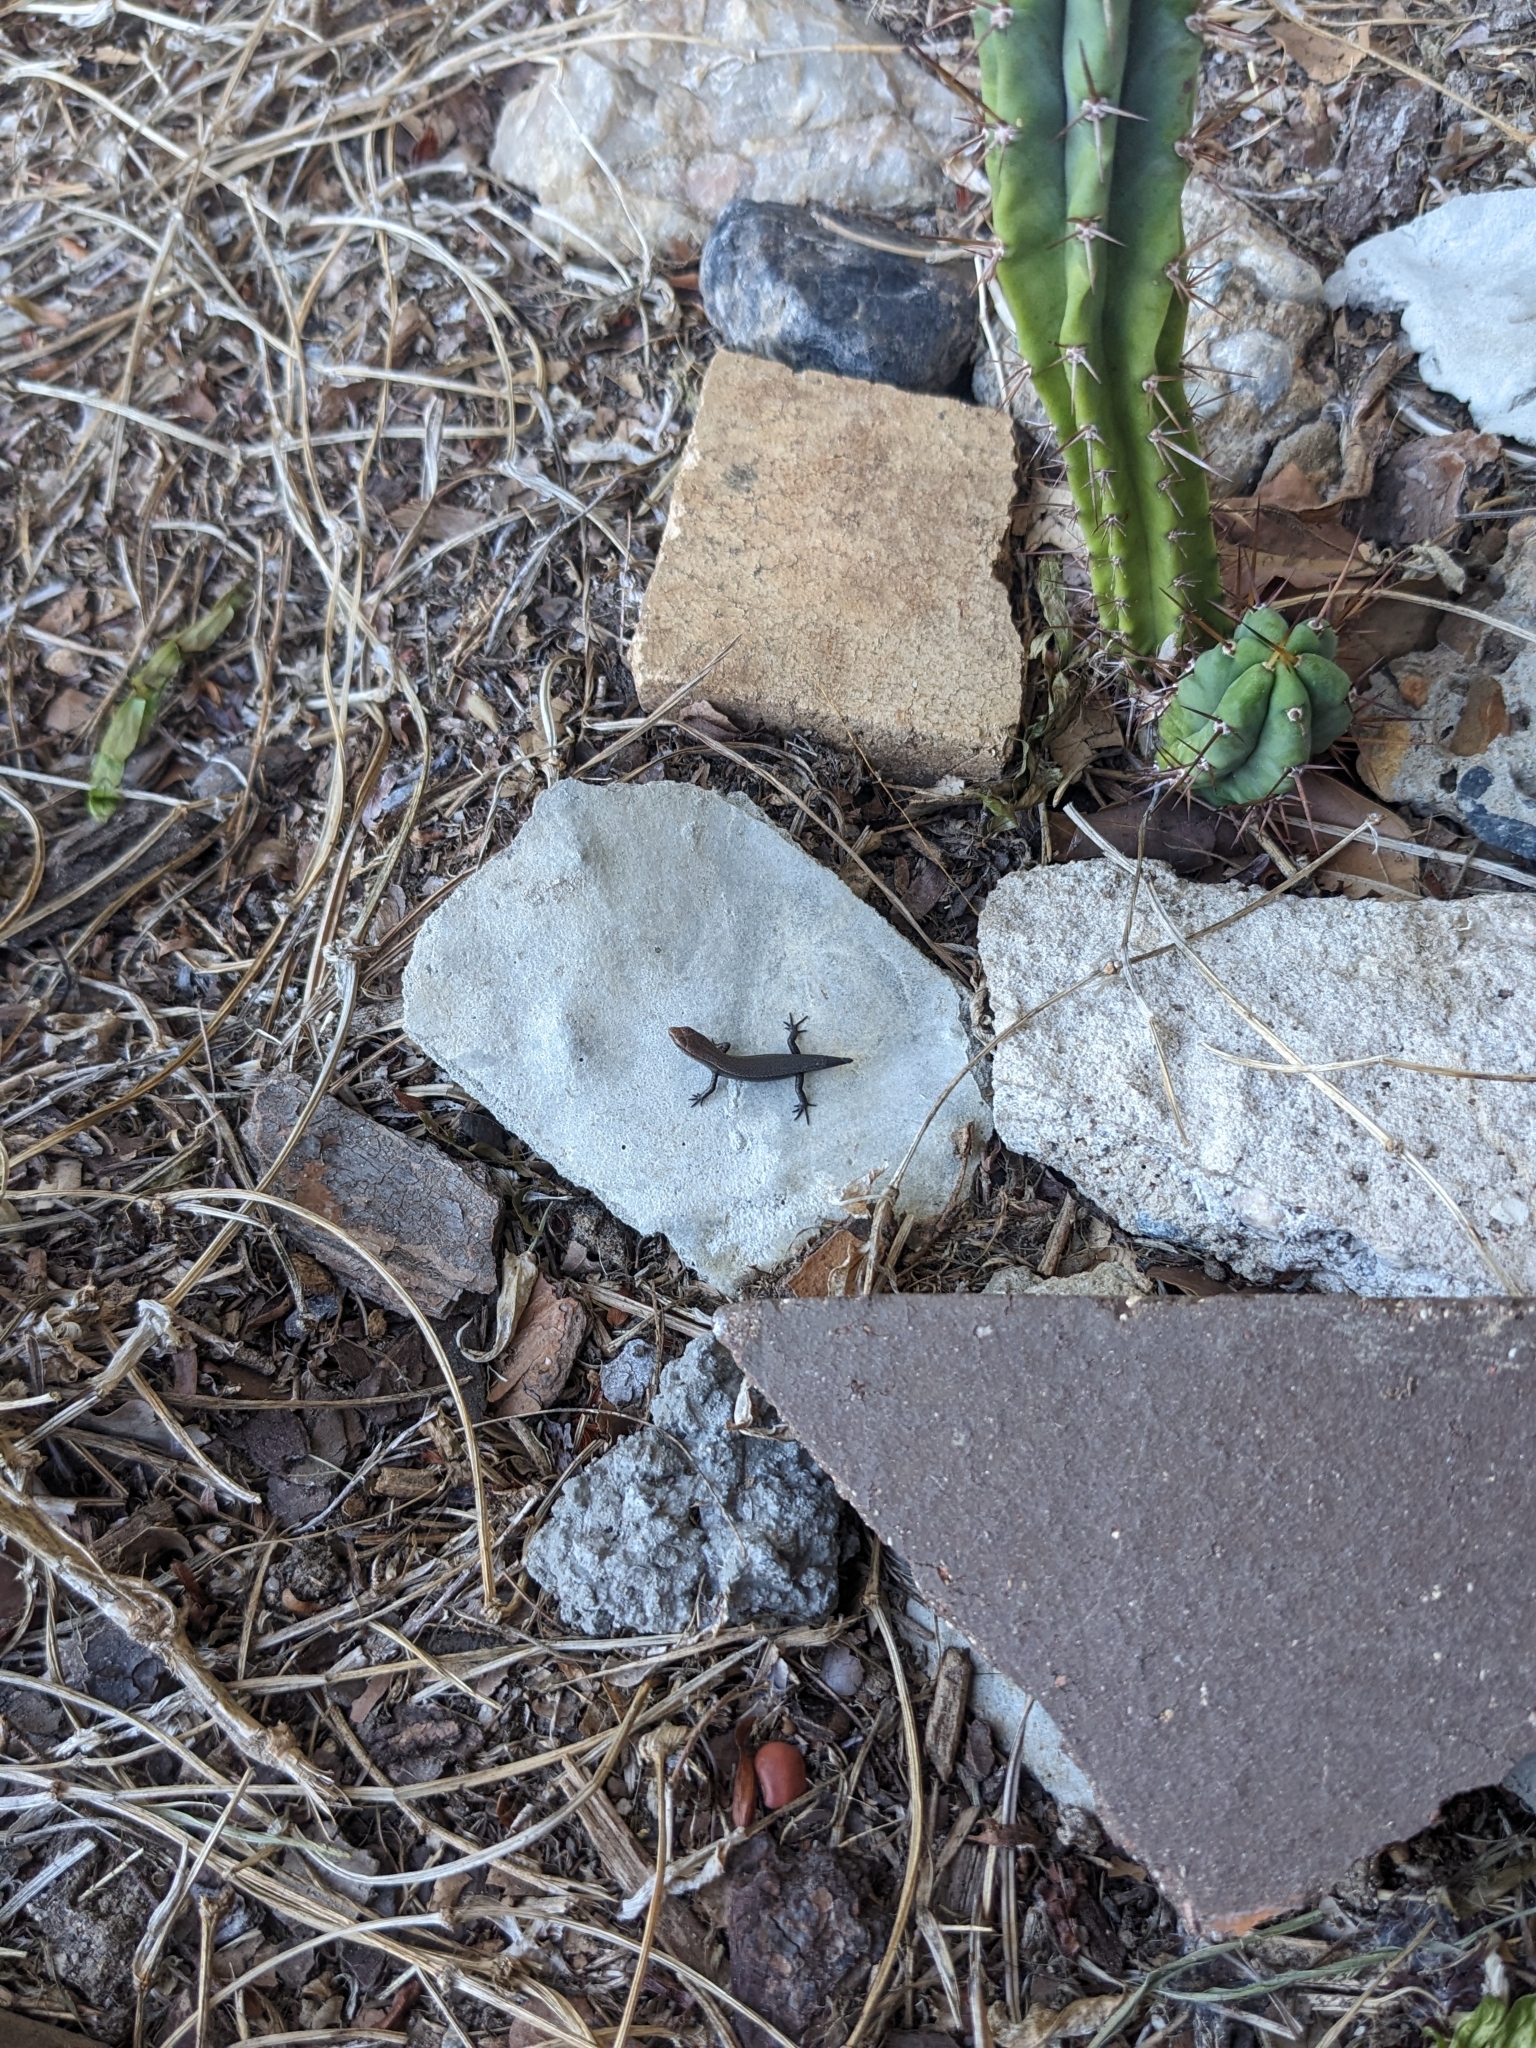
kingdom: Animalia
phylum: Chordata
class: Squamata
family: Scincidae
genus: Lampropholis
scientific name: Lampropholis delicata
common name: Plague skink
